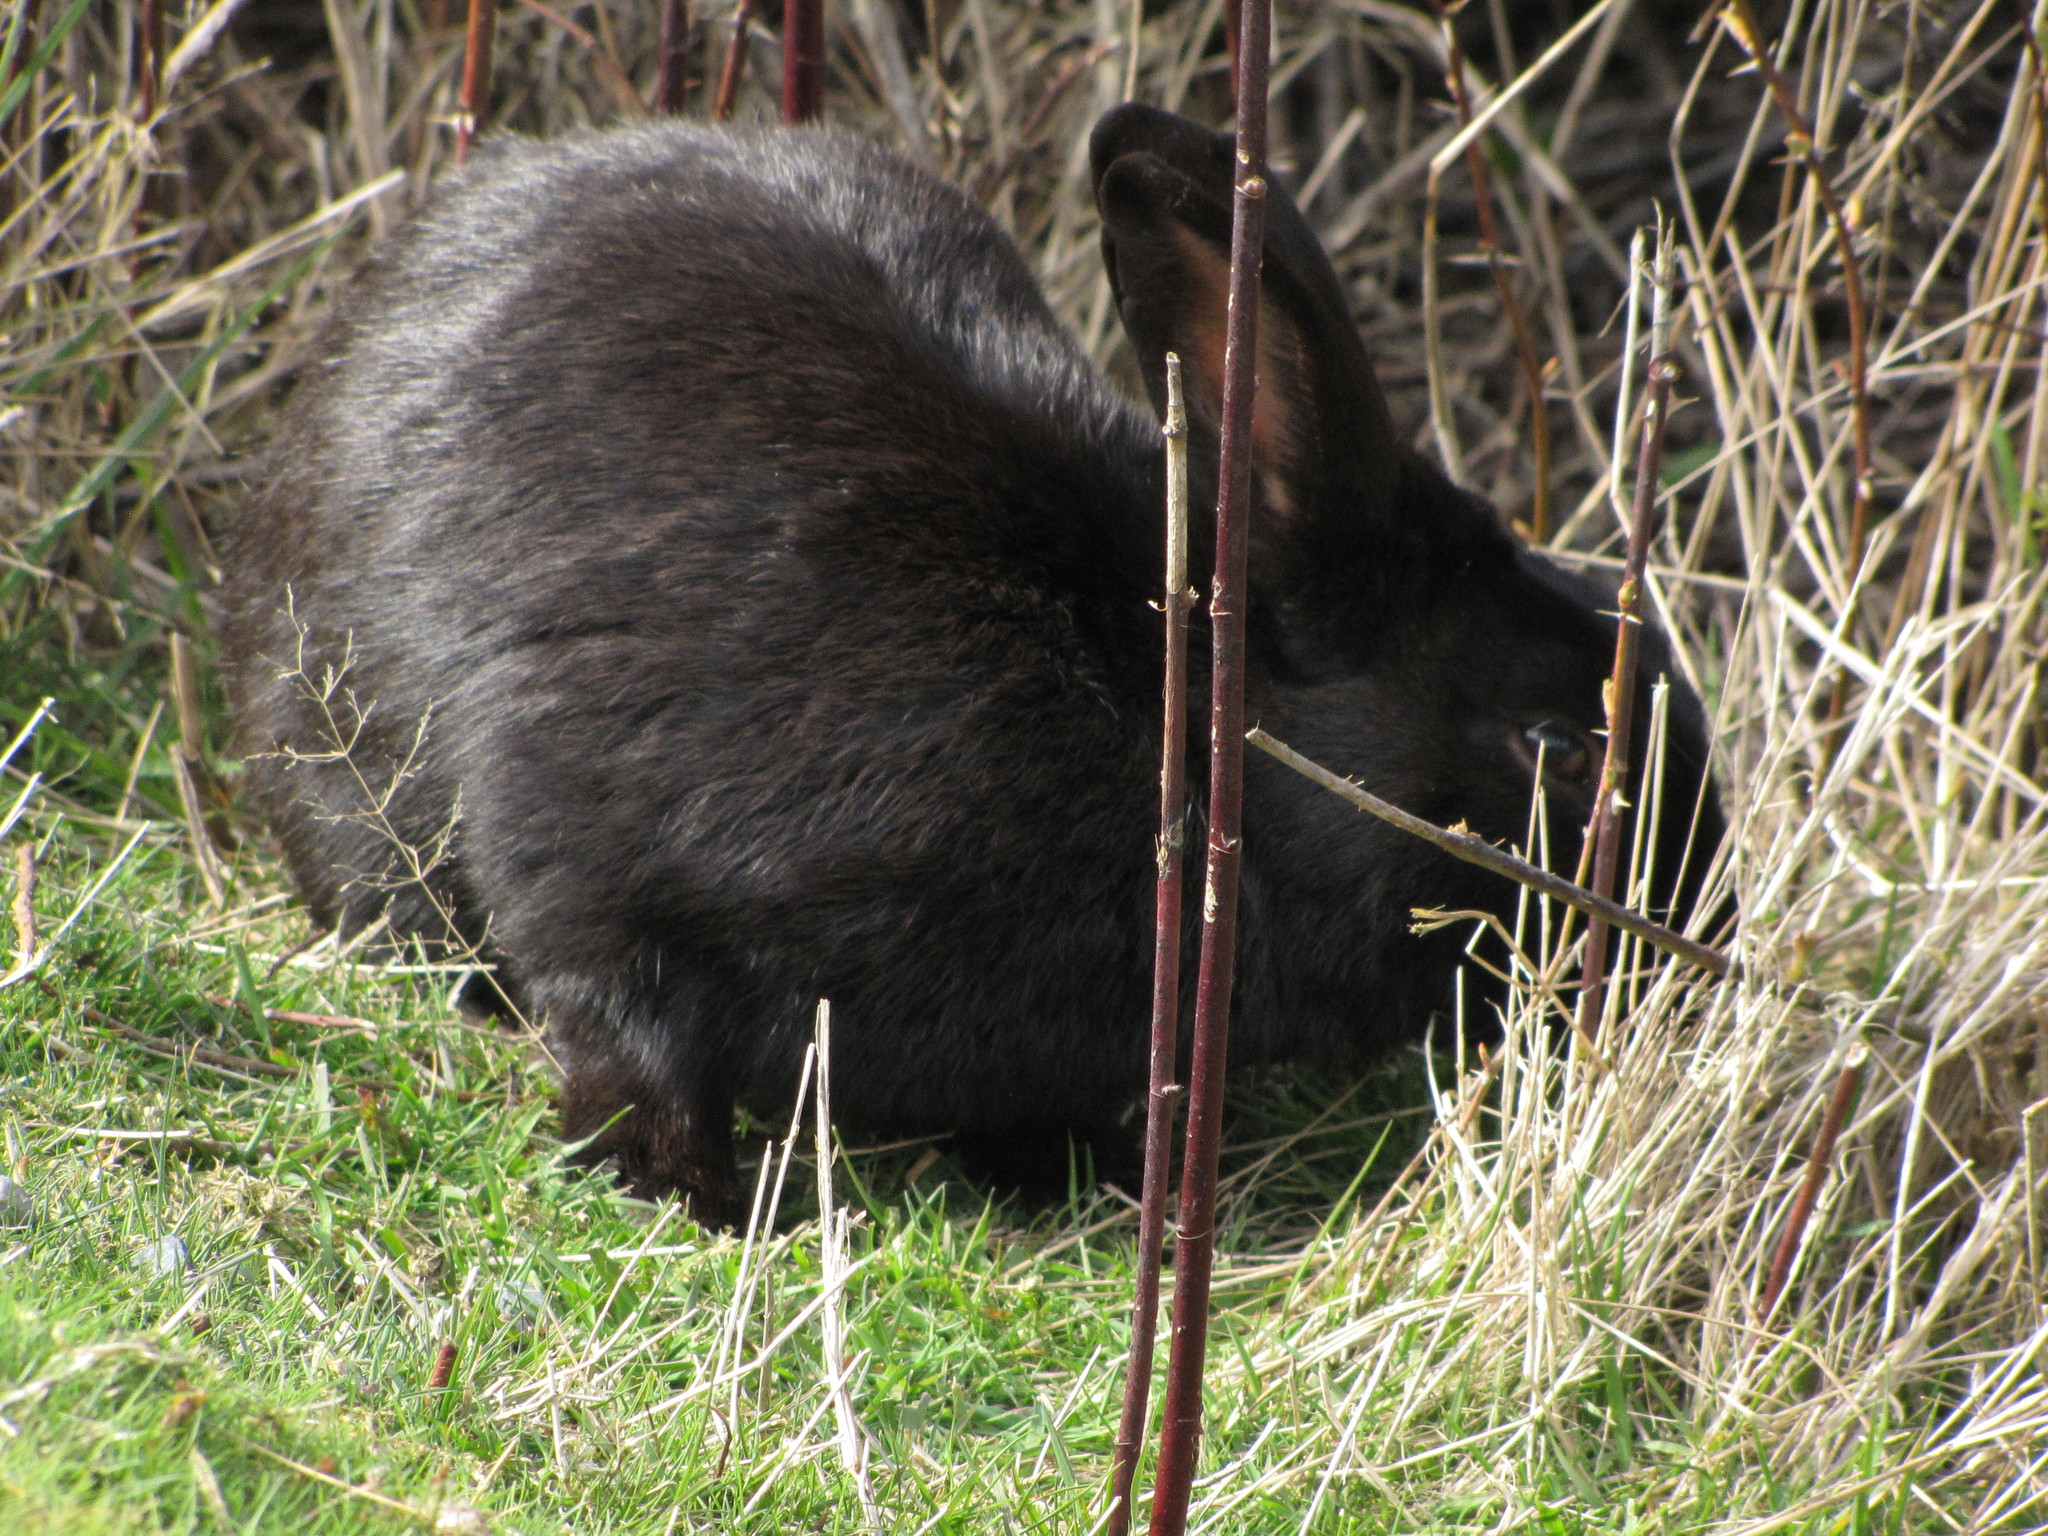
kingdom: Animalia
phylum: Chordata
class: Mammalia
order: Lagomorpha
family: Leporidae
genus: Oryctolagus
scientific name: Oryctolagus cuniculus
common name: European rabbit
